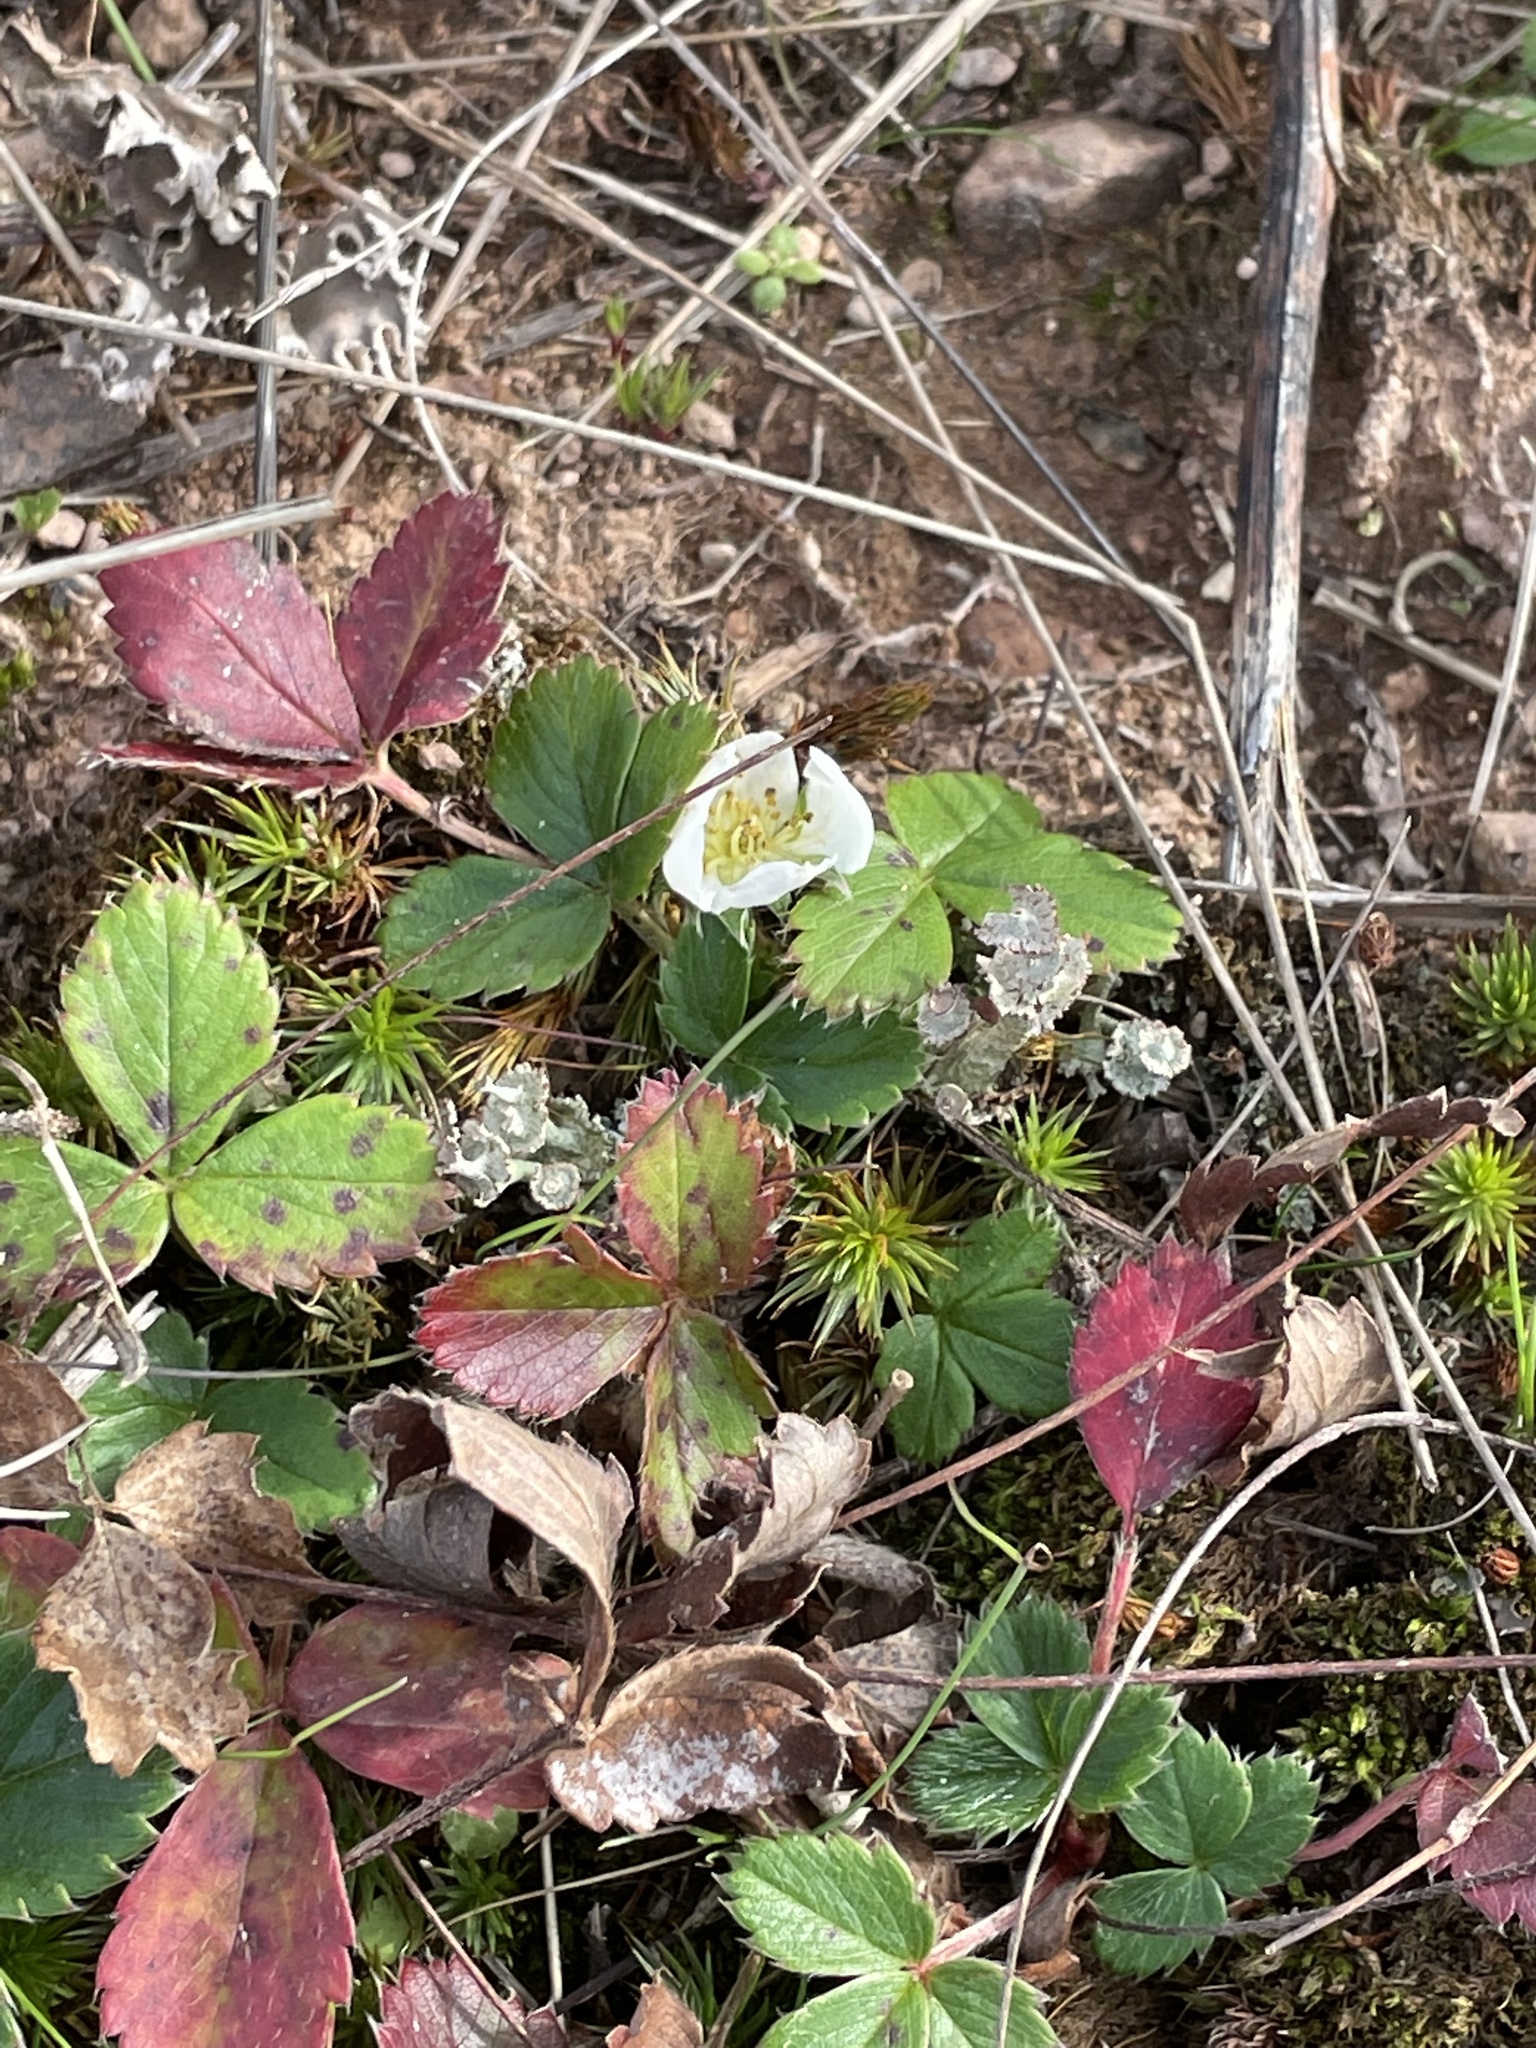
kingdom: Plantae
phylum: Tracheophyta
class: Magnoliopsida
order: Rosales
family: Rosaceae
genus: Fragaria
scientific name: Fragaria virginiana
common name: Thickleaved wild strawberry
